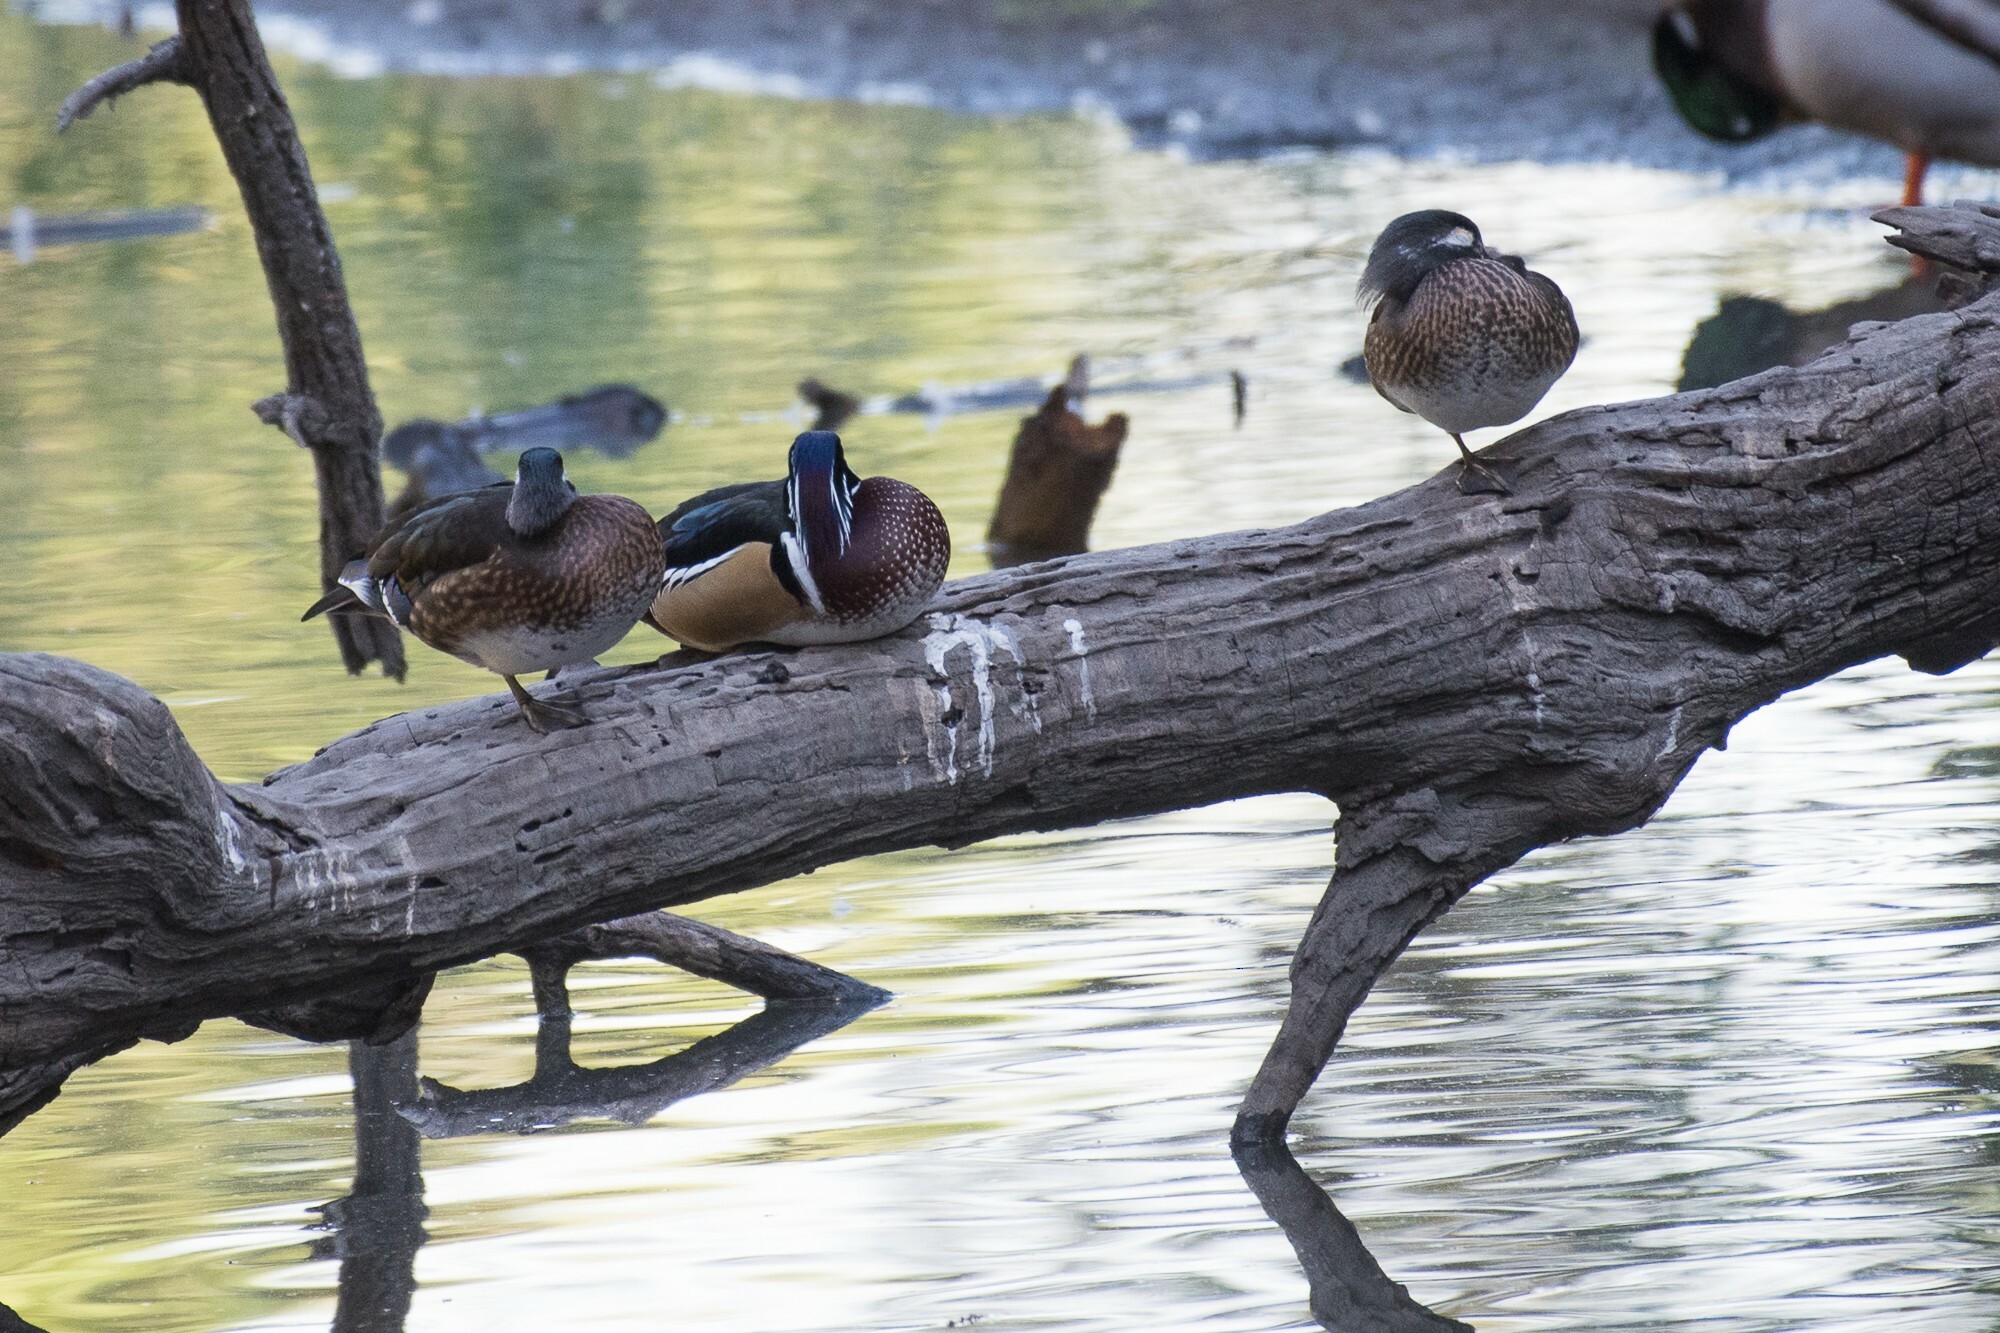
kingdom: Animalia
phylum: Chordata
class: Aves
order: Anseriformes
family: Anatidae
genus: Aix
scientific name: Aix sponsa
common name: Wood duck
